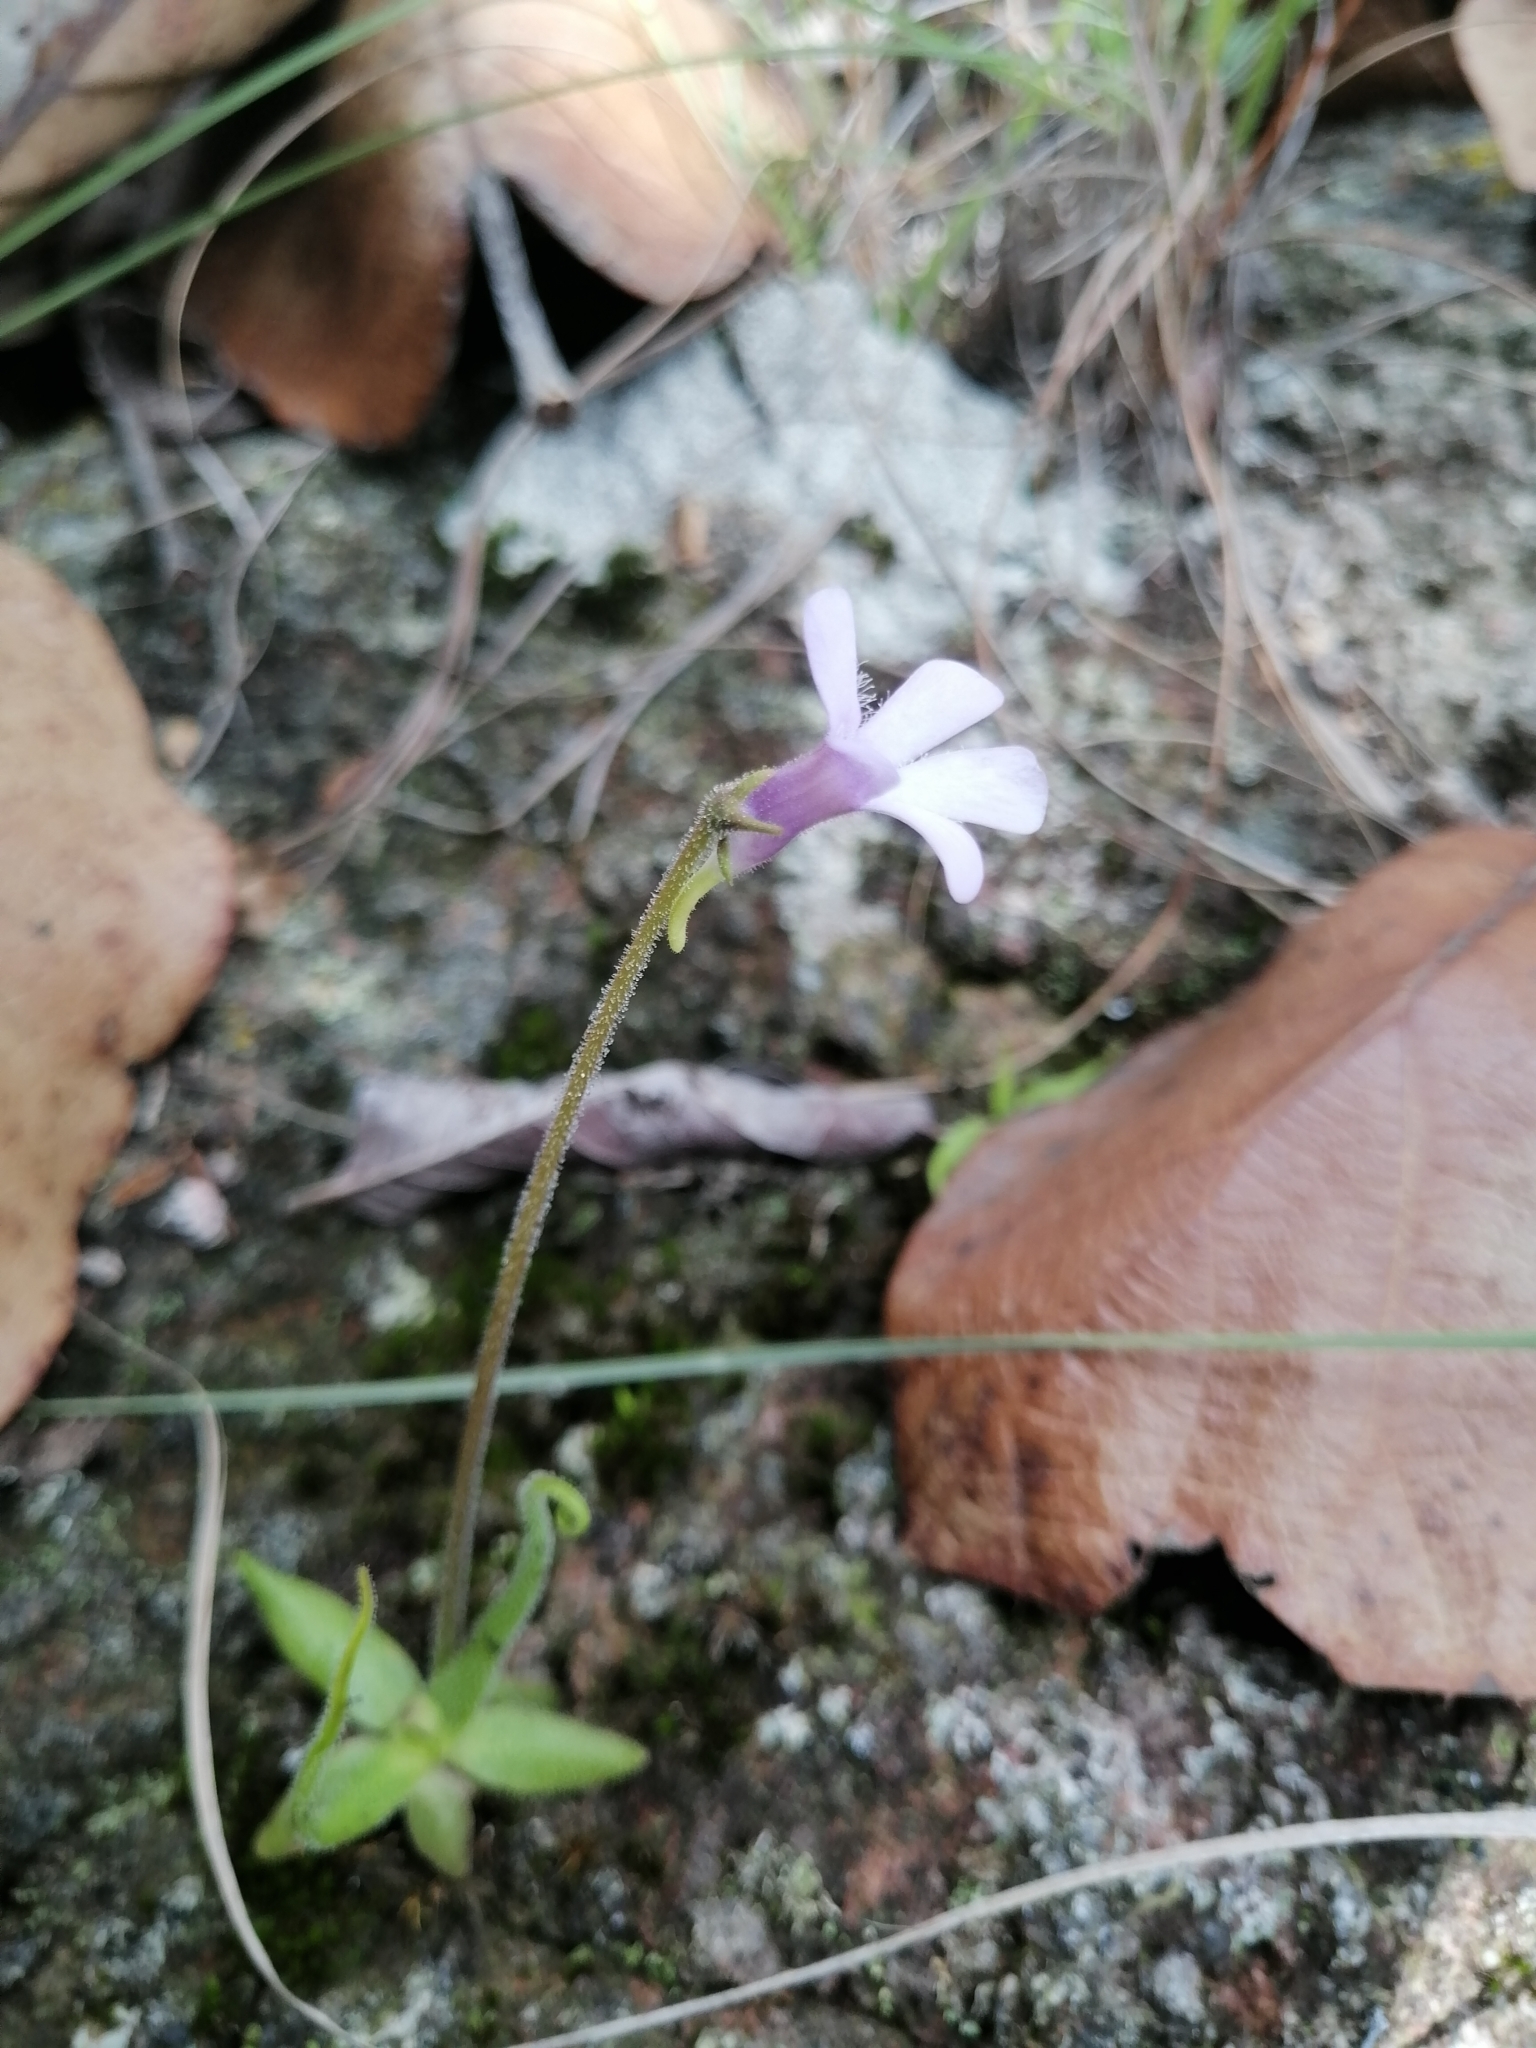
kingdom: Plantae
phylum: Tracheophyta
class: Magnoliopsida
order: Lamiales
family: Lentibulariaceae
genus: Pinguicula
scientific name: Pinguicula heterophylla
